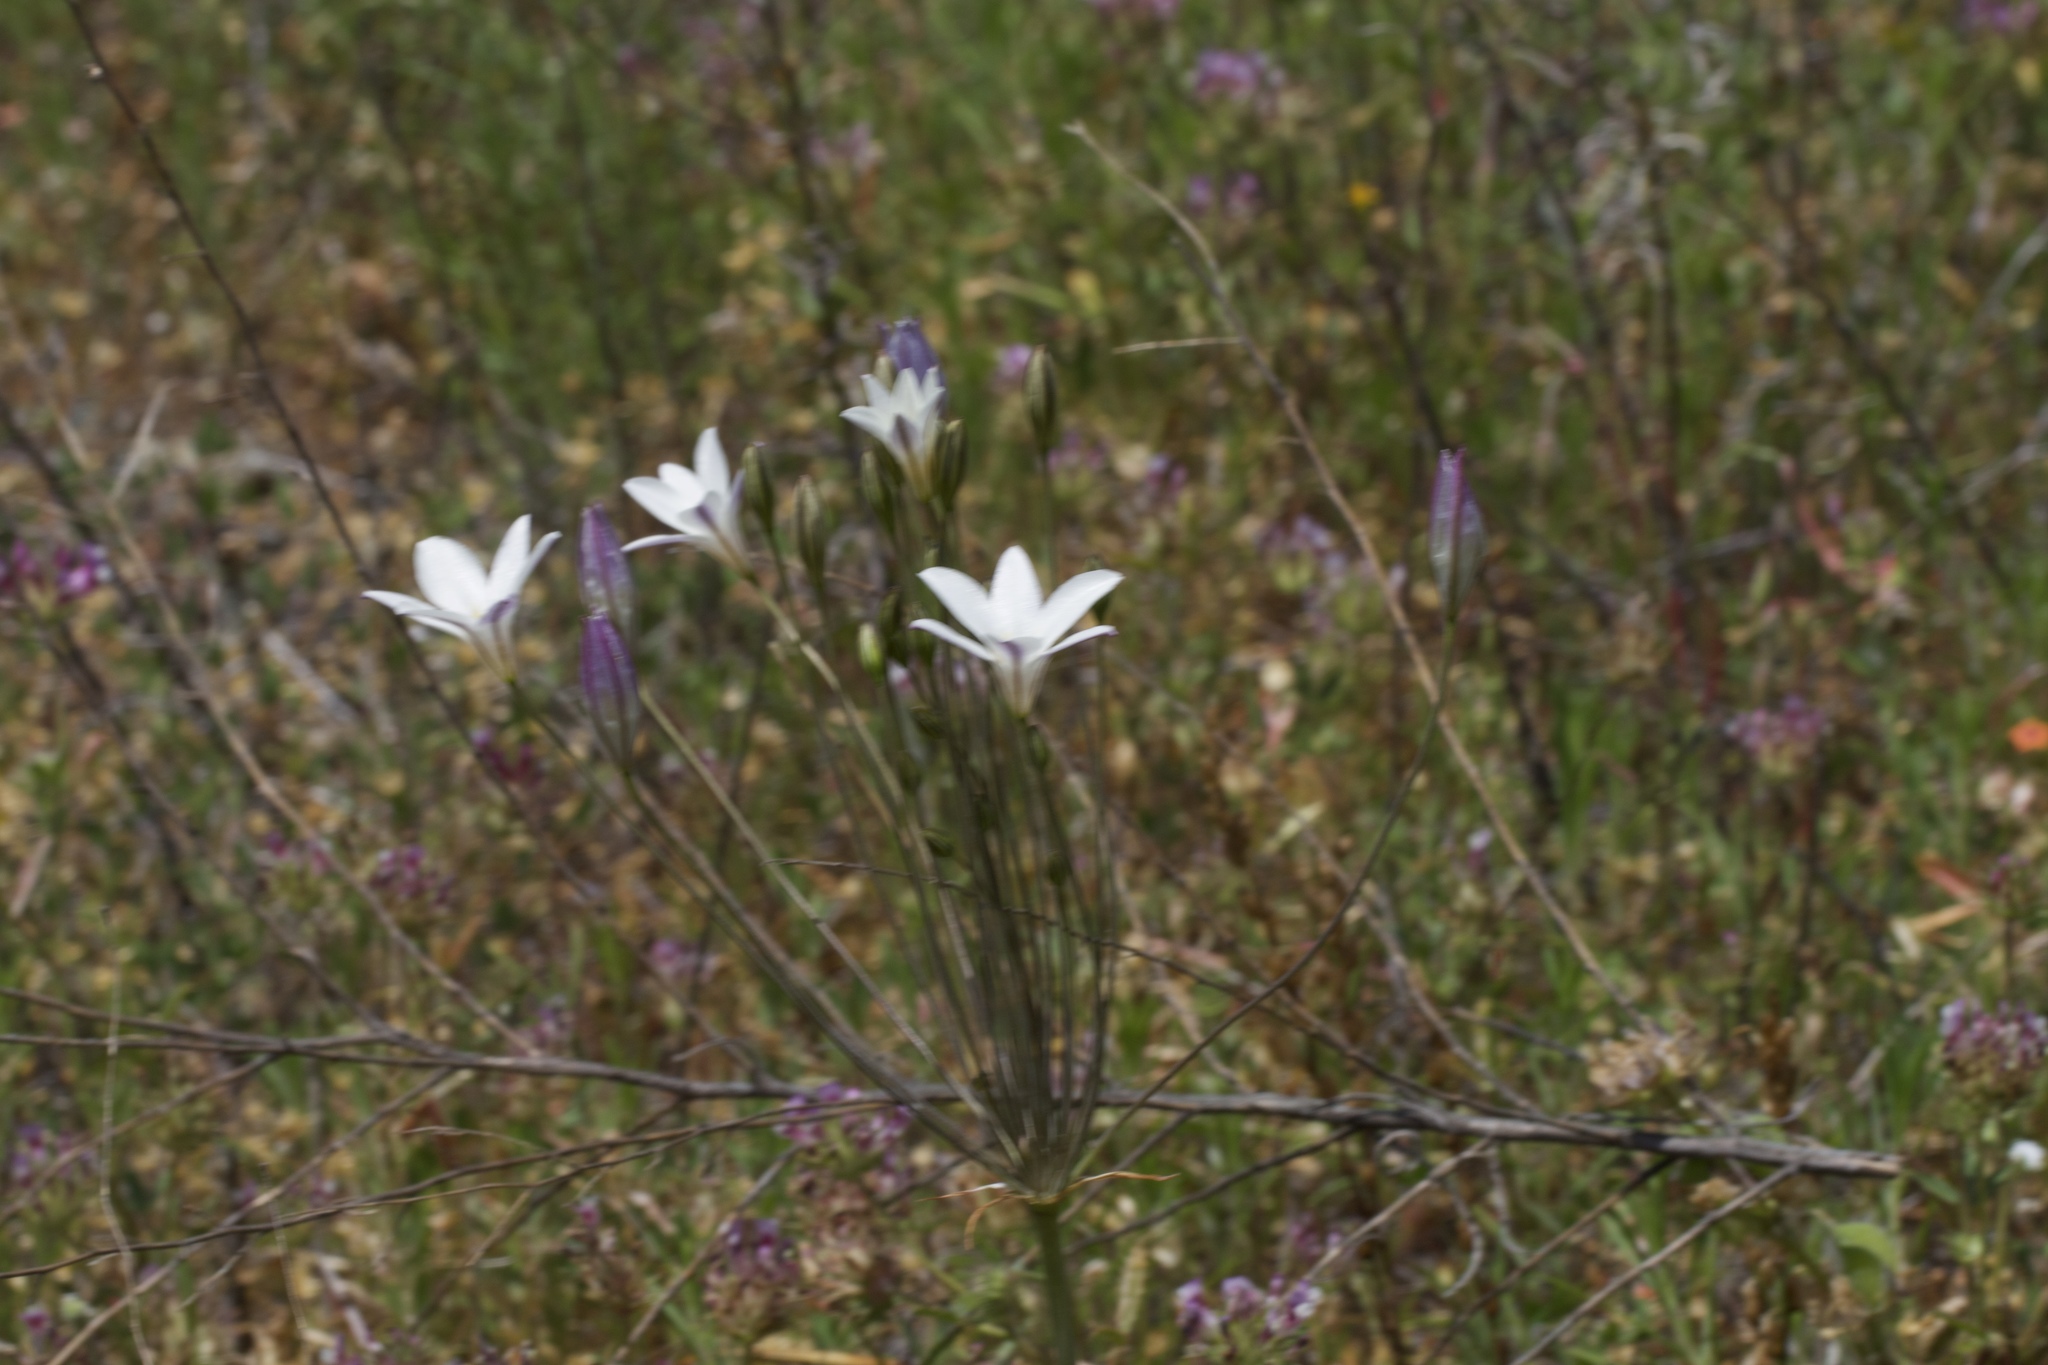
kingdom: Plantae
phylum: Tracheophyta
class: Liliopsida
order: Asparagales
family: Asparagaceae
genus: Triteleia
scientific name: Triteleia peduncularis
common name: Long-ray brodiaea
